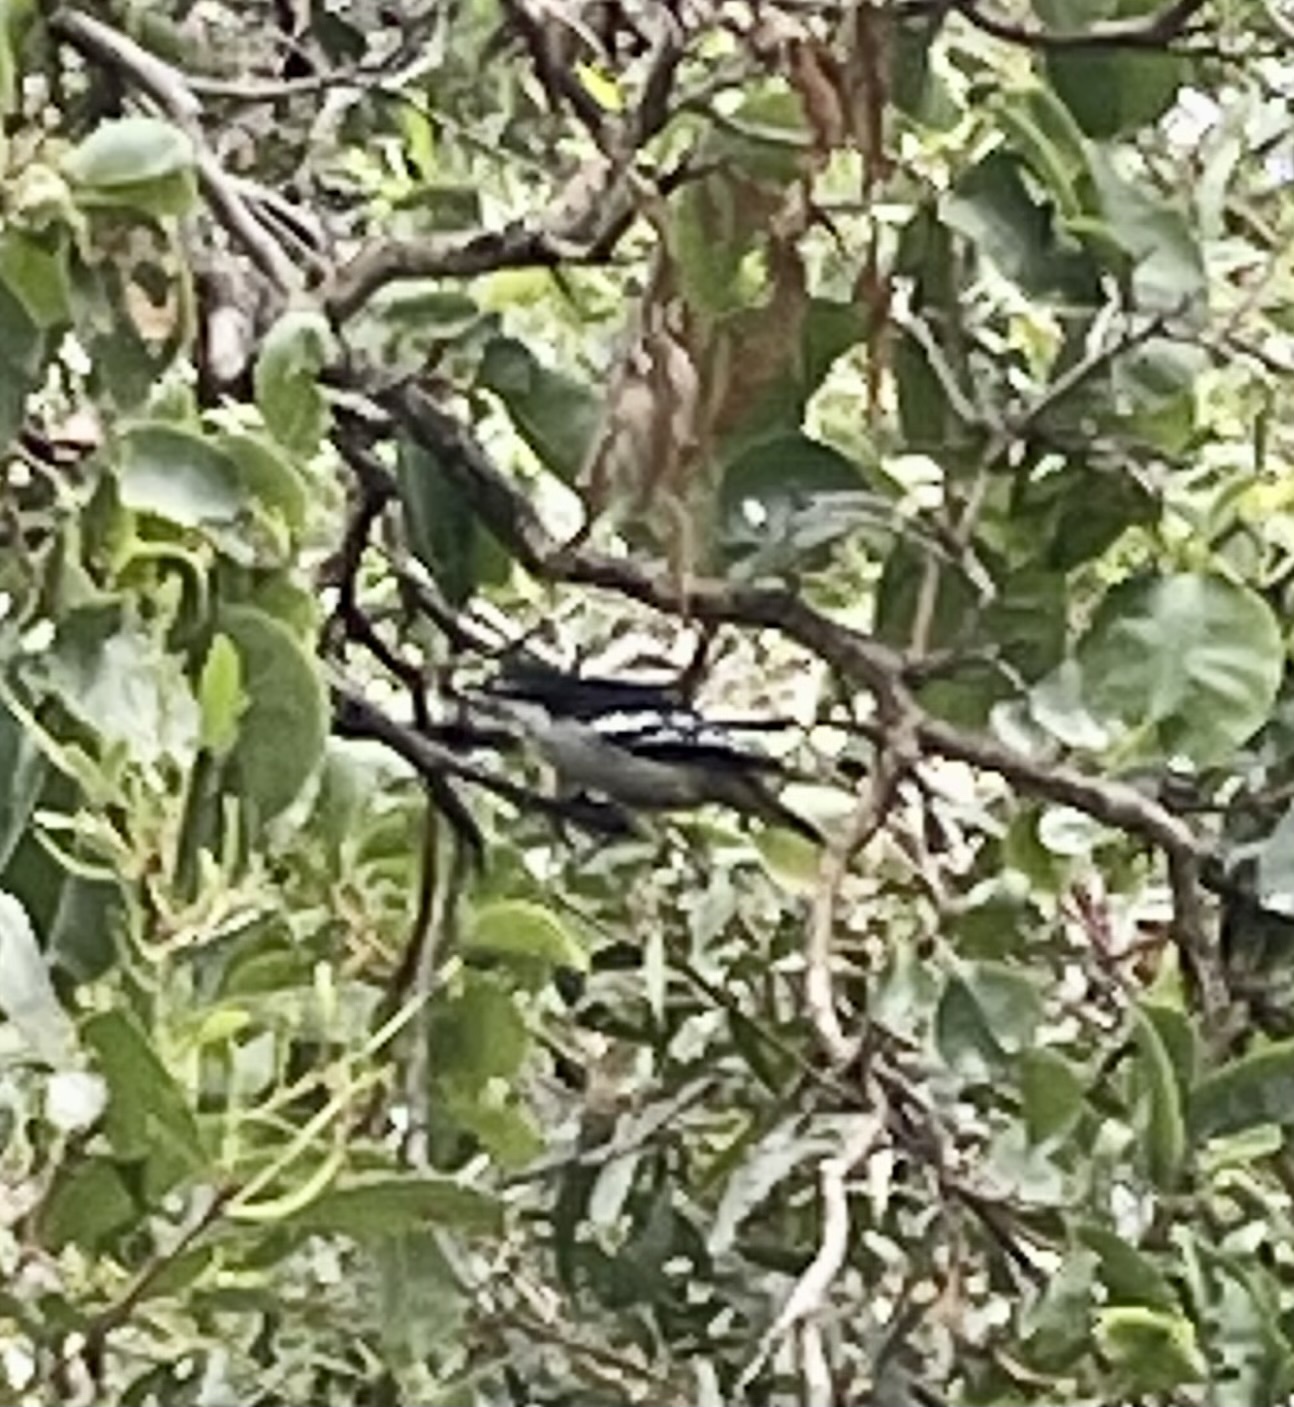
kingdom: Animalia
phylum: Chordata
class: Aves
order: Passeriformes
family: Campephagidae
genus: Lalage
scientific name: Lalage leucomela
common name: Varied triller
